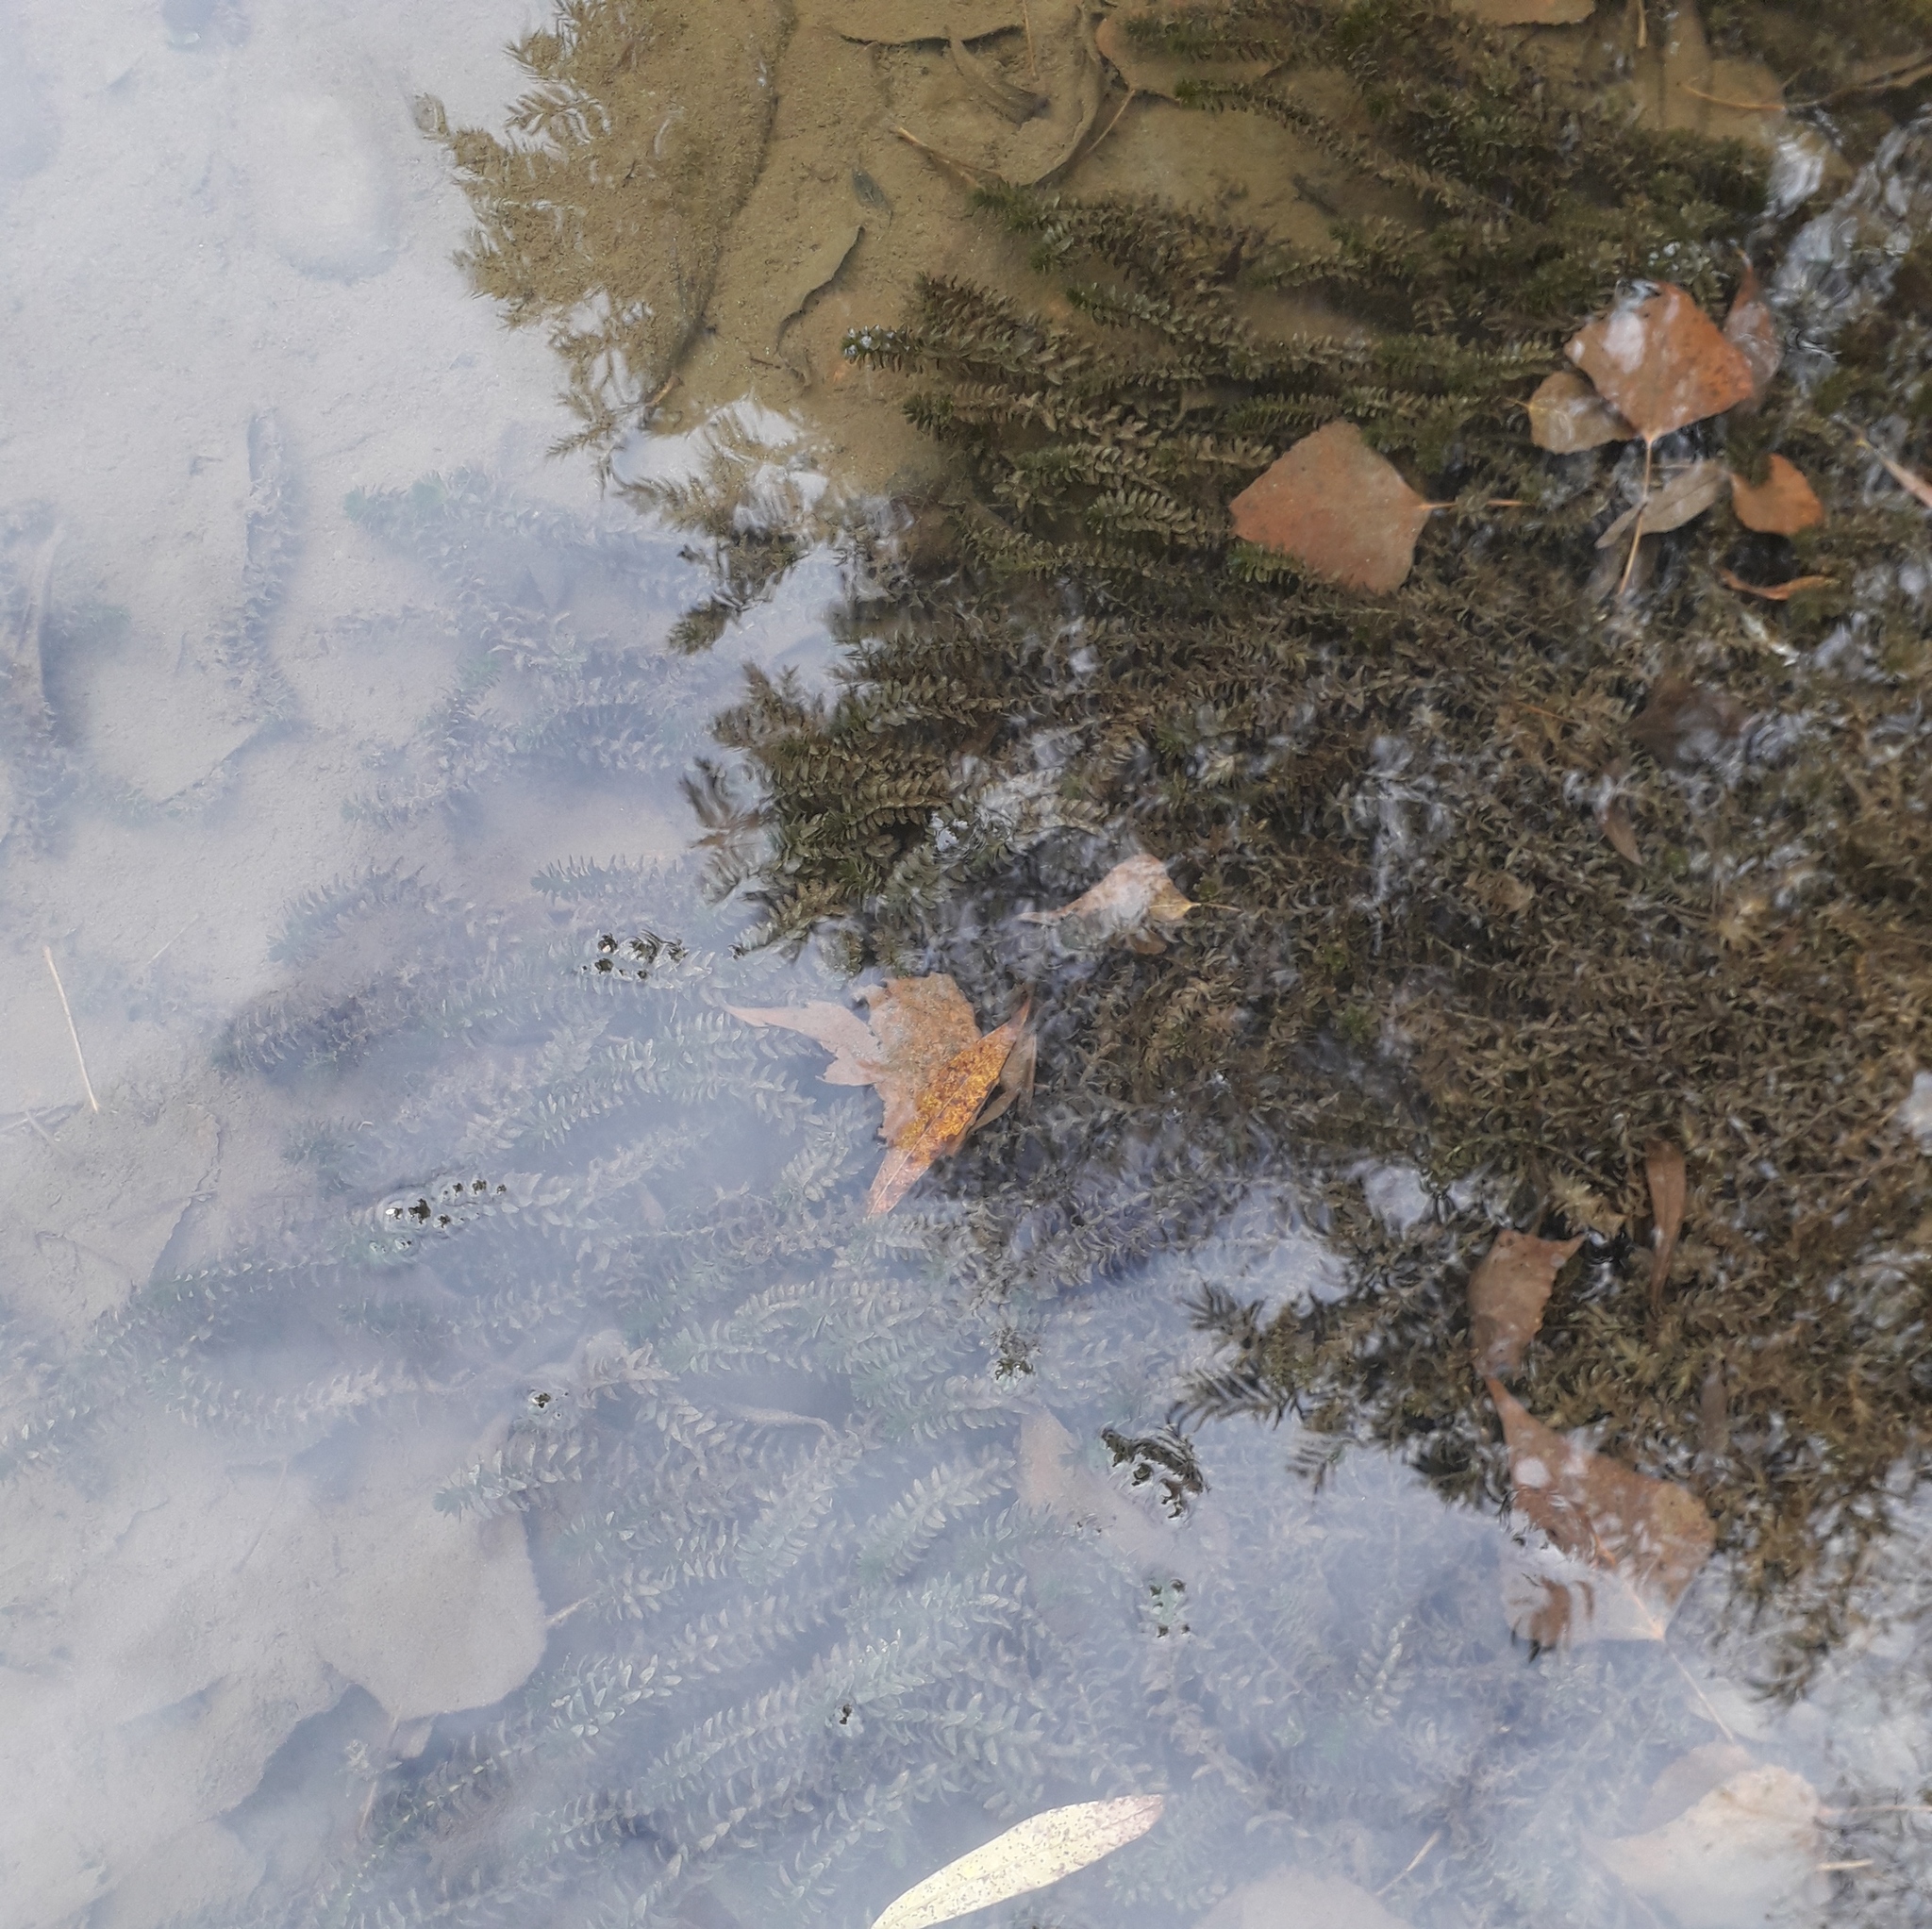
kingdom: Plantae
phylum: Tracheophyta
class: Liliopsida
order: Alismatales
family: Hydrocharitaceae
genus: Elodea
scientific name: Elodea canadensis
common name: Canadian waterweed
